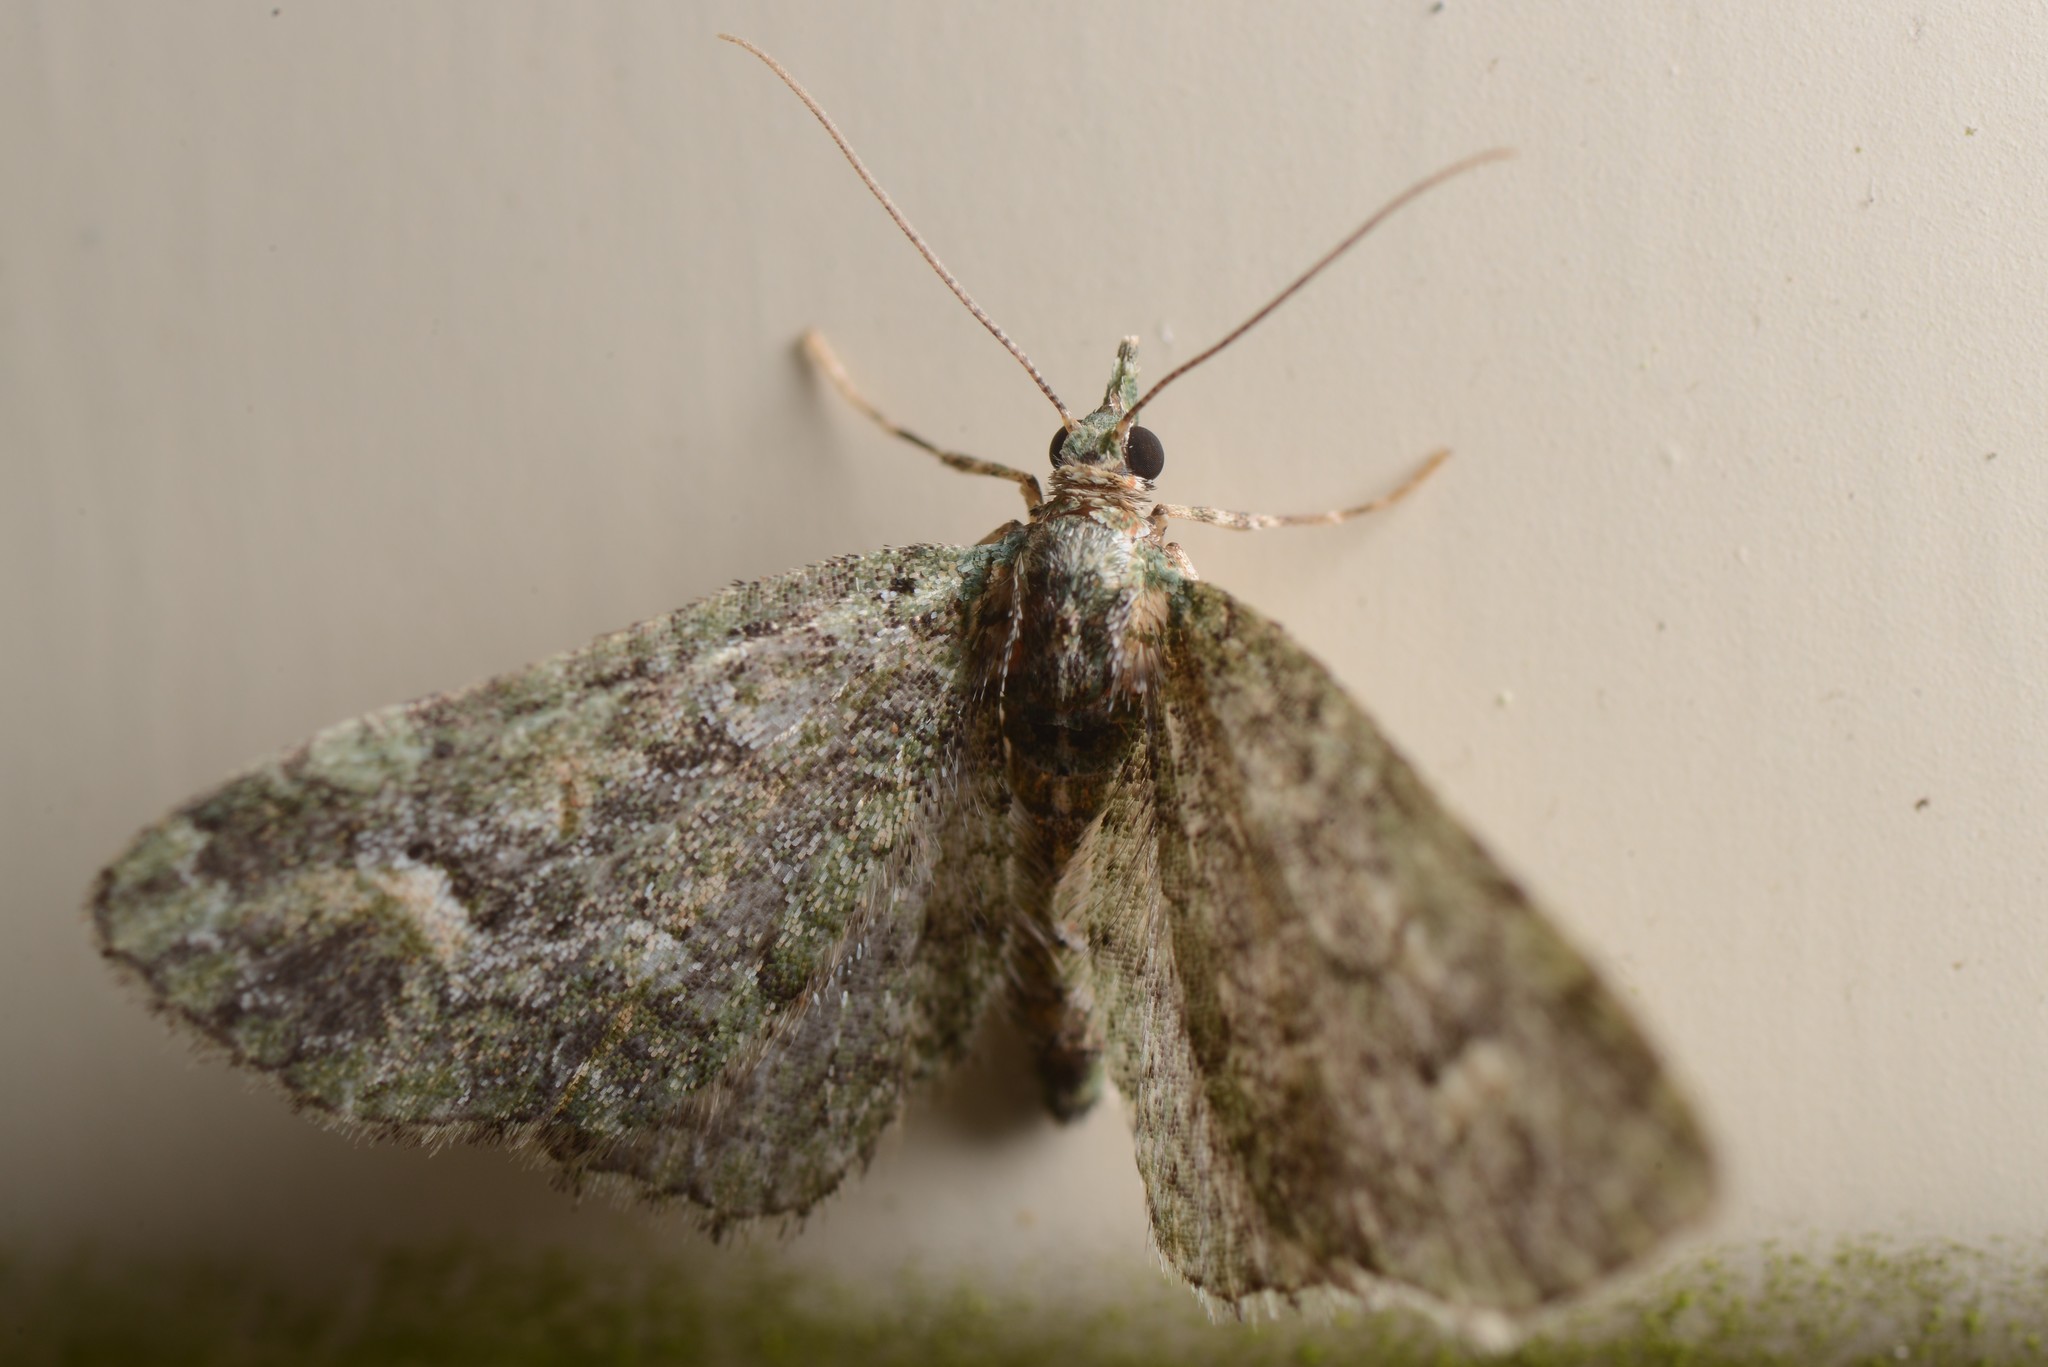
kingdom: Animalia
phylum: Arthropoda
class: Insecta
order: Lepidoptera
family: Geometridae
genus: Idaea
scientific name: Idaea mutanda
